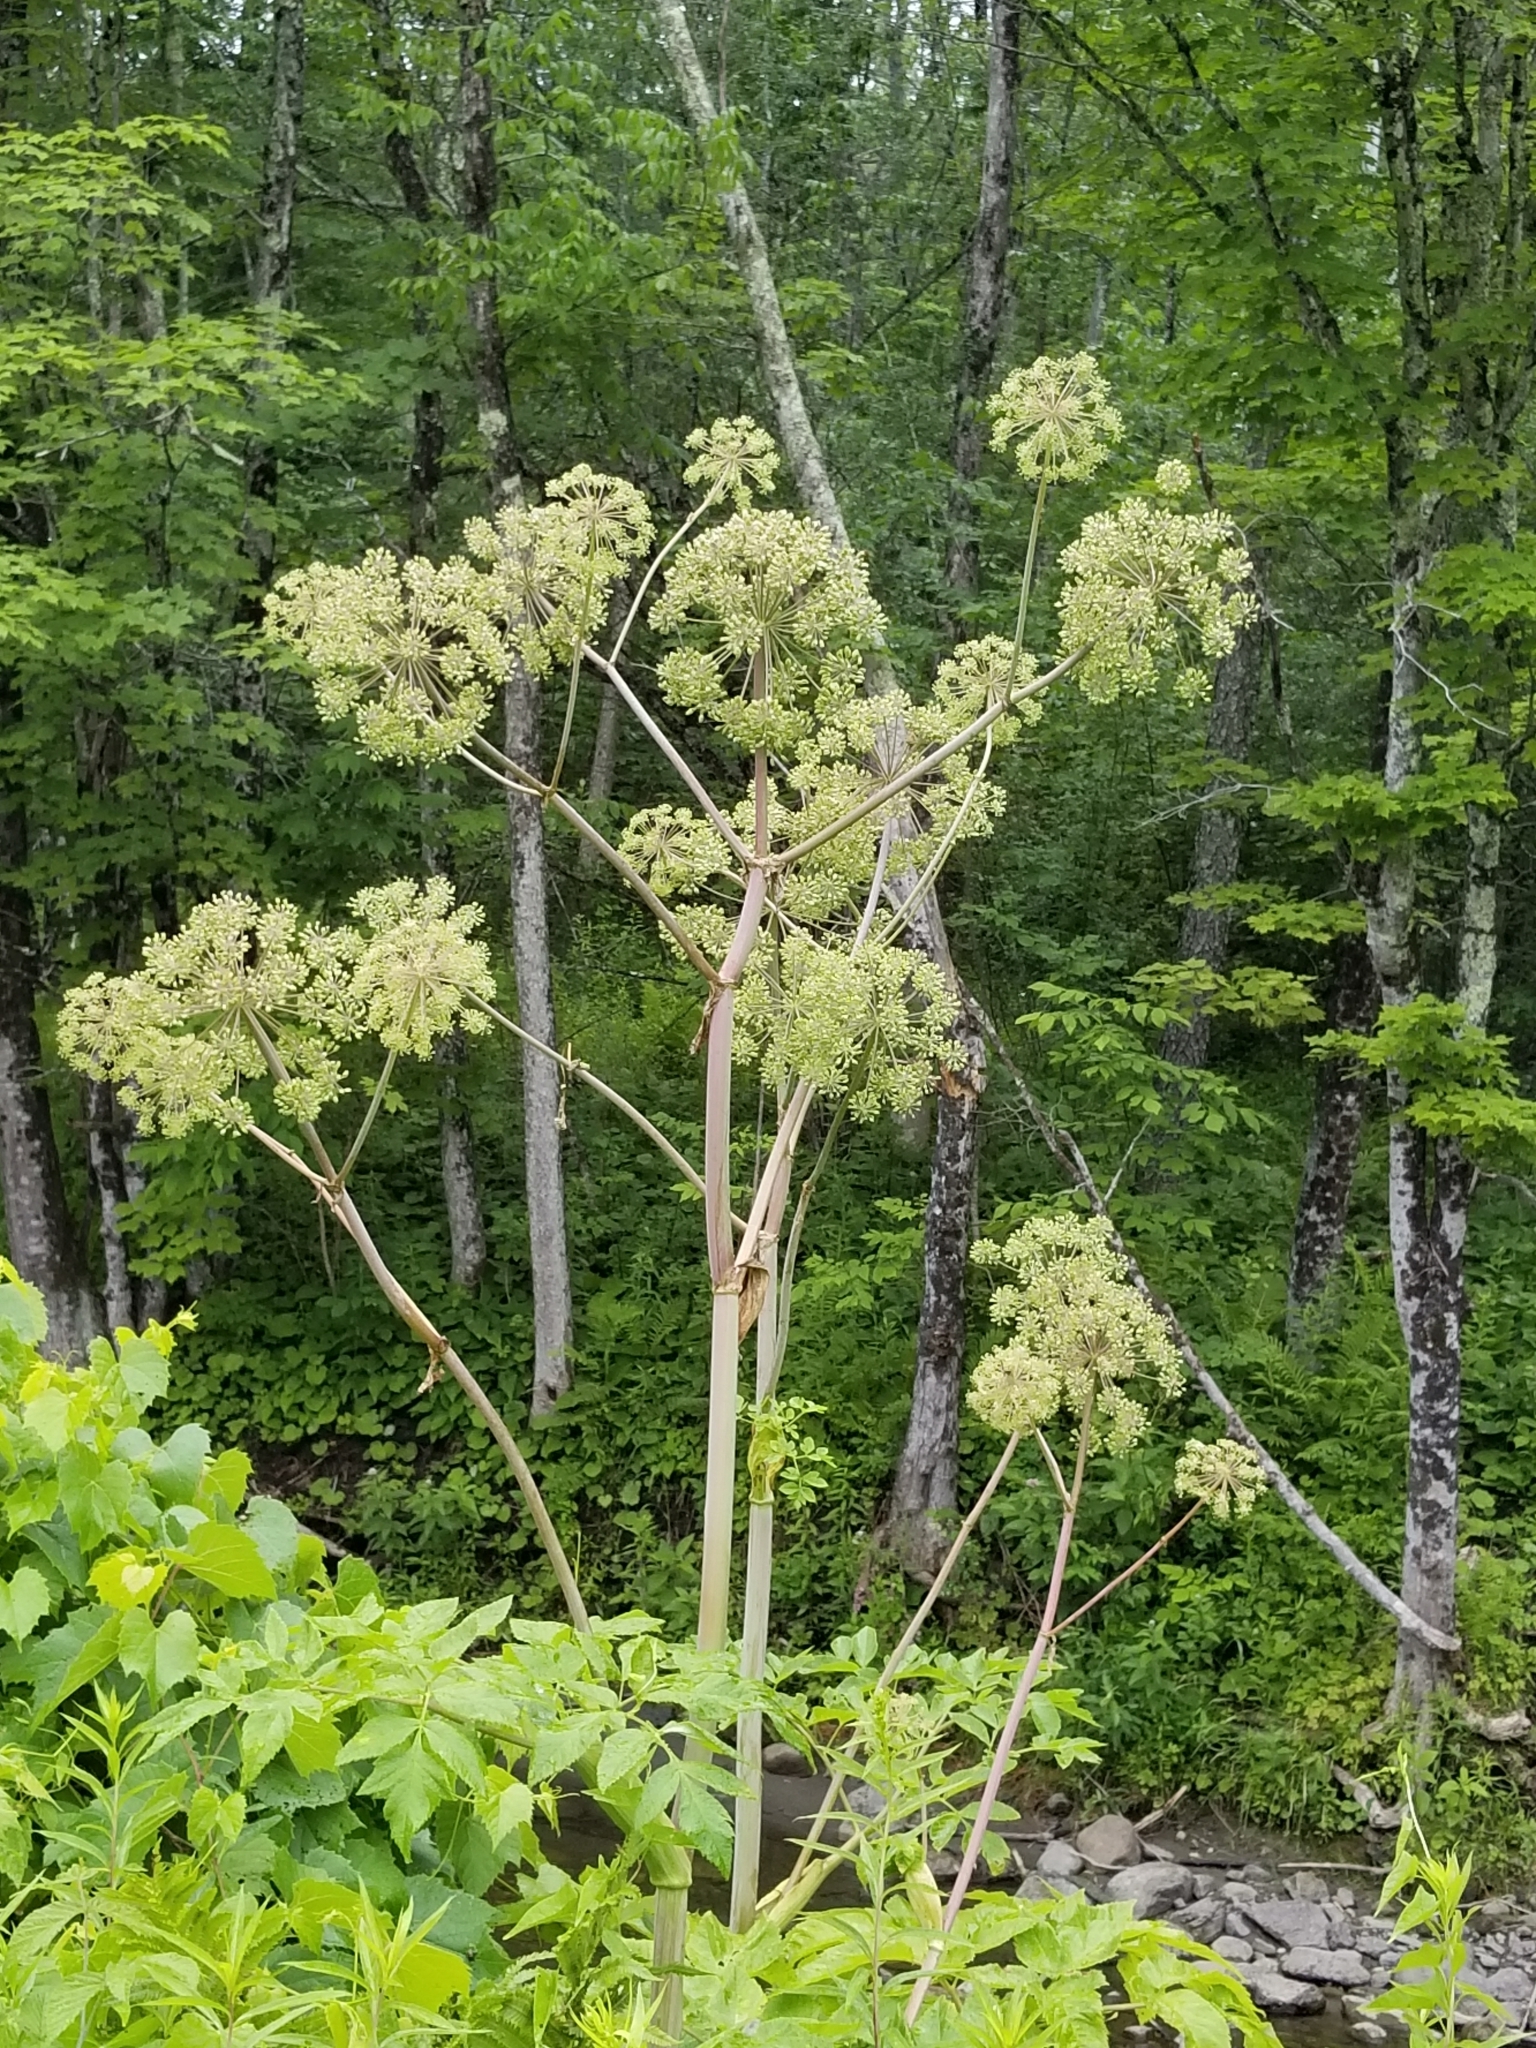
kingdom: Plantae
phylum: Tracheophyta
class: Magnoliopsida
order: Apiales
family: Apiaceae
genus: Angelica
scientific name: Angelica atropurpurea
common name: Great angelica
